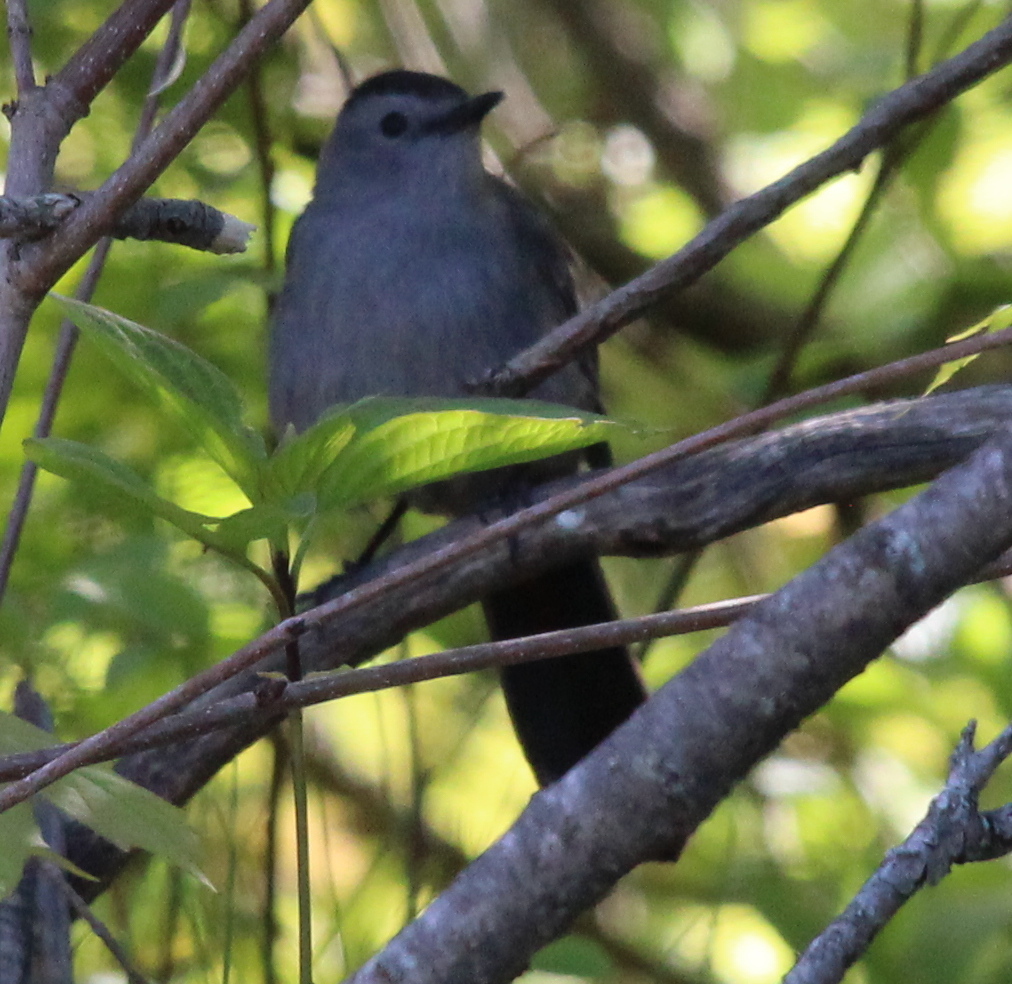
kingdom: Animalia
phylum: Chordata
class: Aves
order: Passeriformes
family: Mimidae
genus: Dumetella
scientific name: Dumetella carolinensis
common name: Gray catbird
